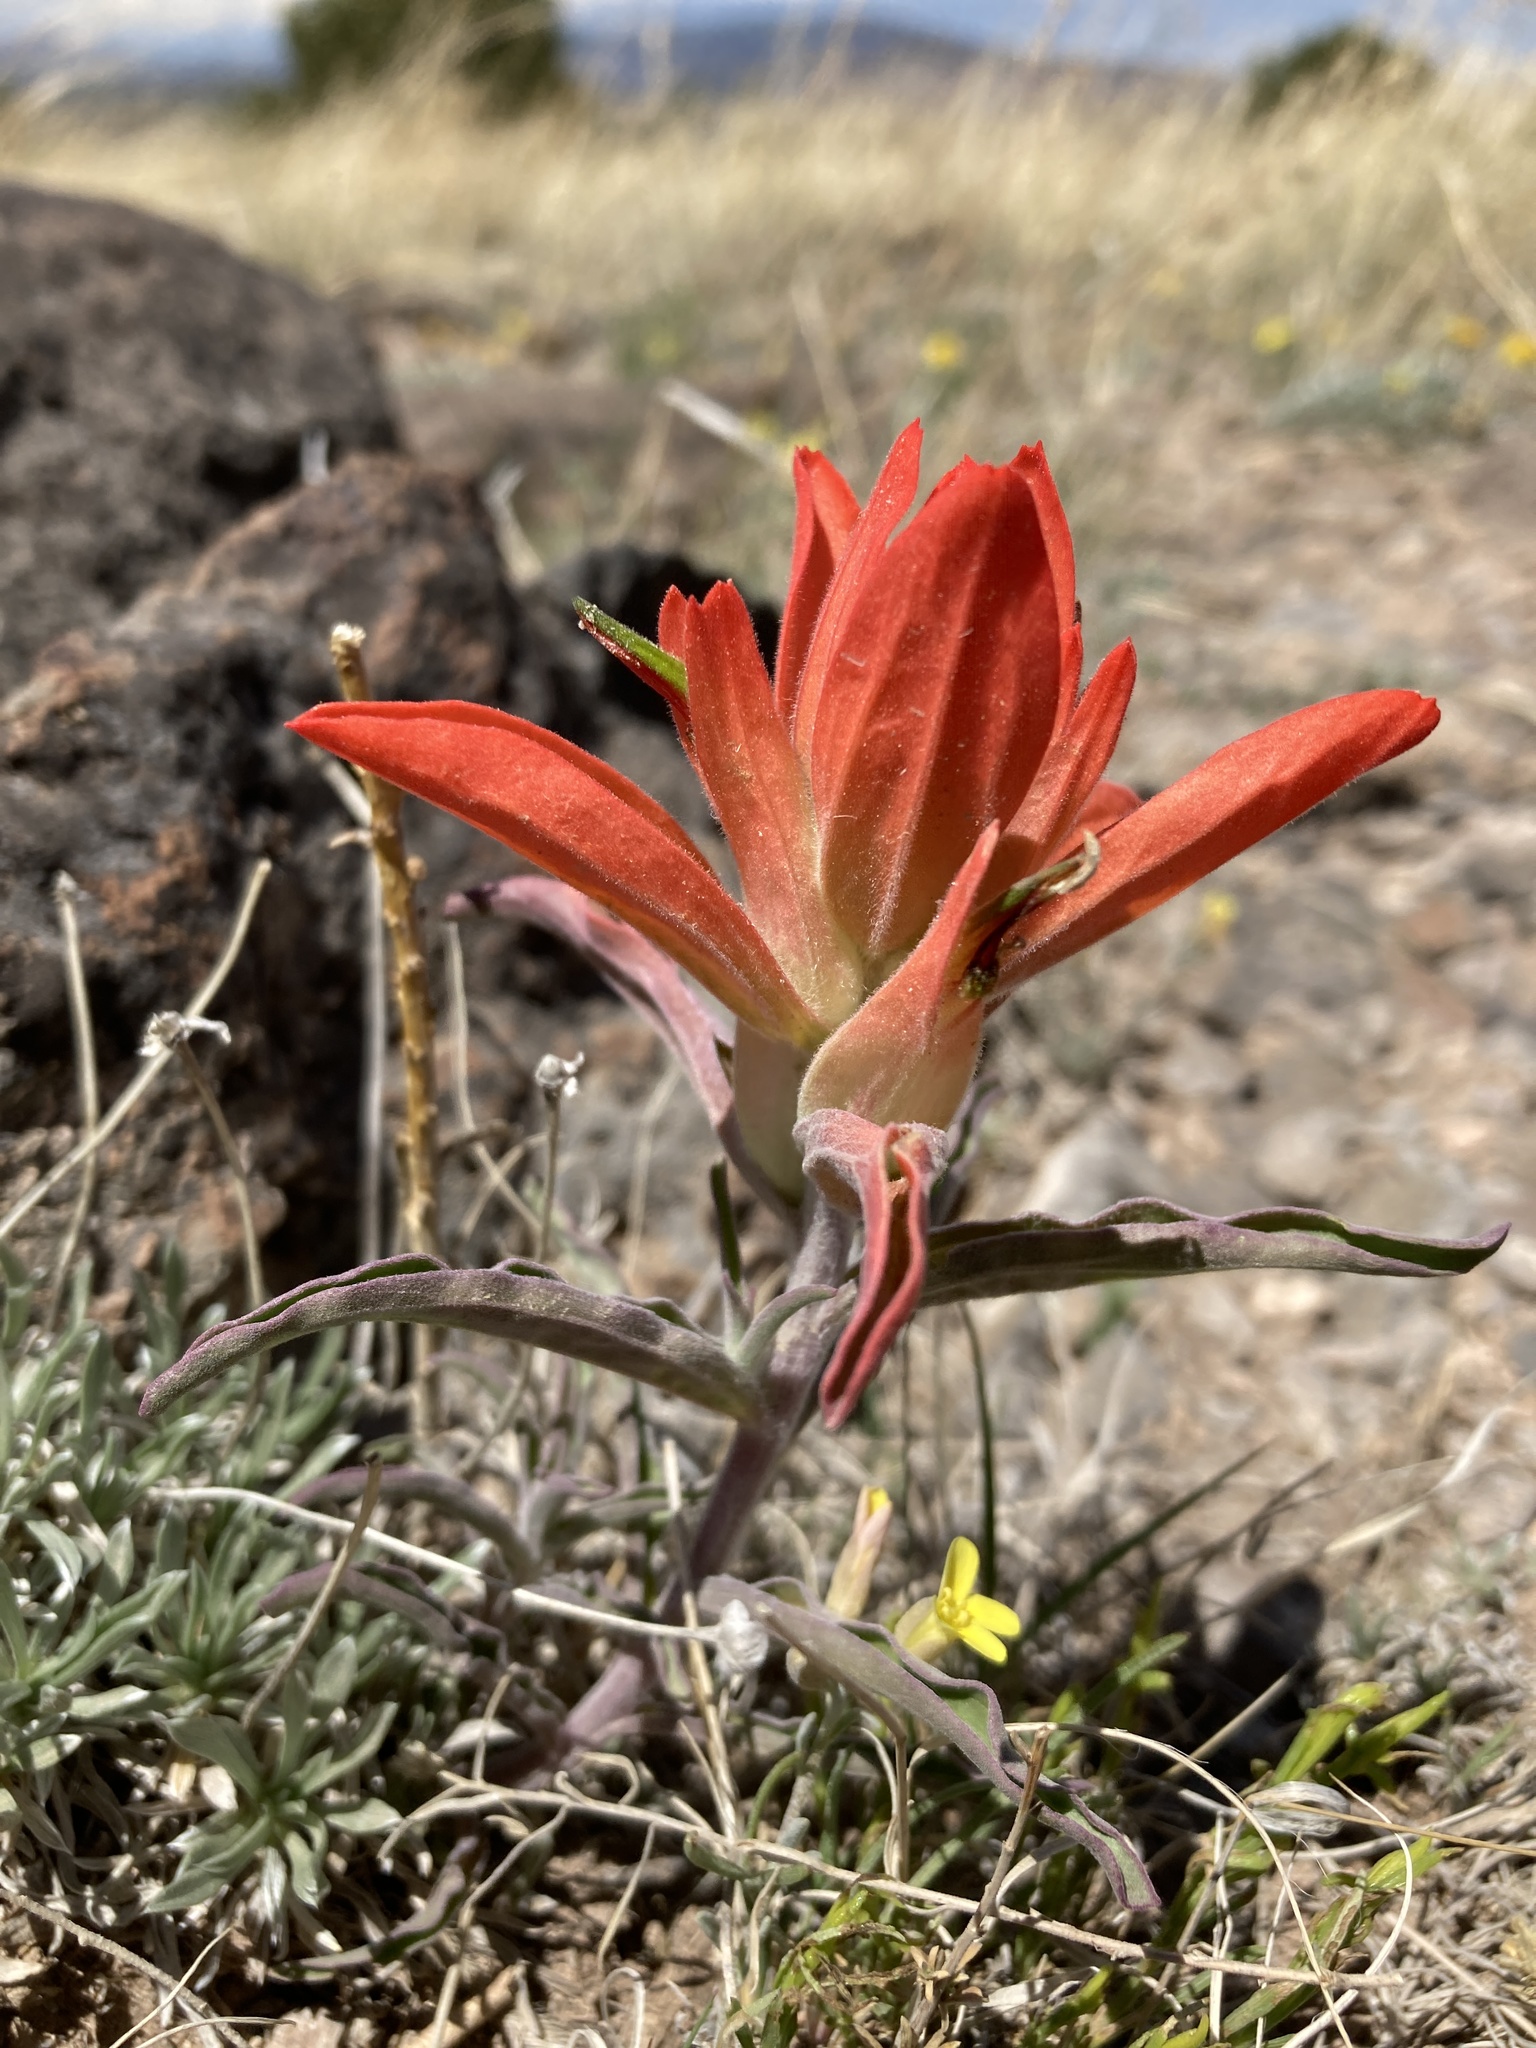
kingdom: Plantae
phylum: Tracheophyta
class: Magnoliopsida
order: Lamiales
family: Orobanchaceae
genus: Castilleja
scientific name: Castilleja integra
